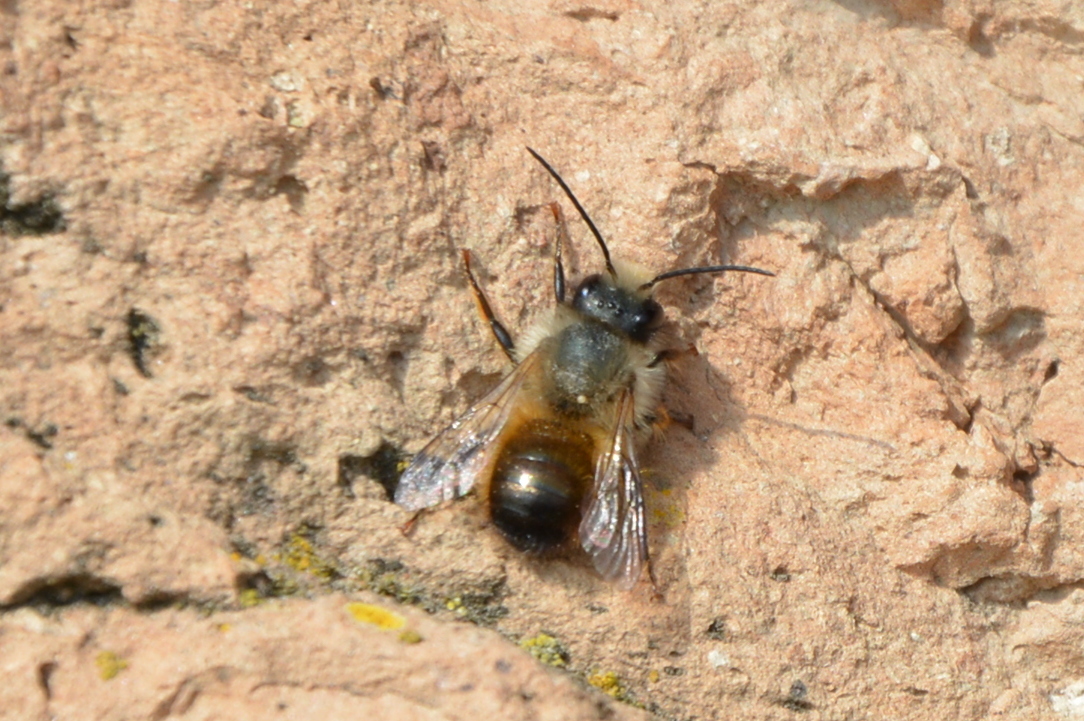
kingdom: Animalia
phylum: Arthropoda
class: Insecta
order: Hymenoptera
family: Megachilidae
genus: Osmia
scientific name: Osmia bicornis
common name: Red mason bee
